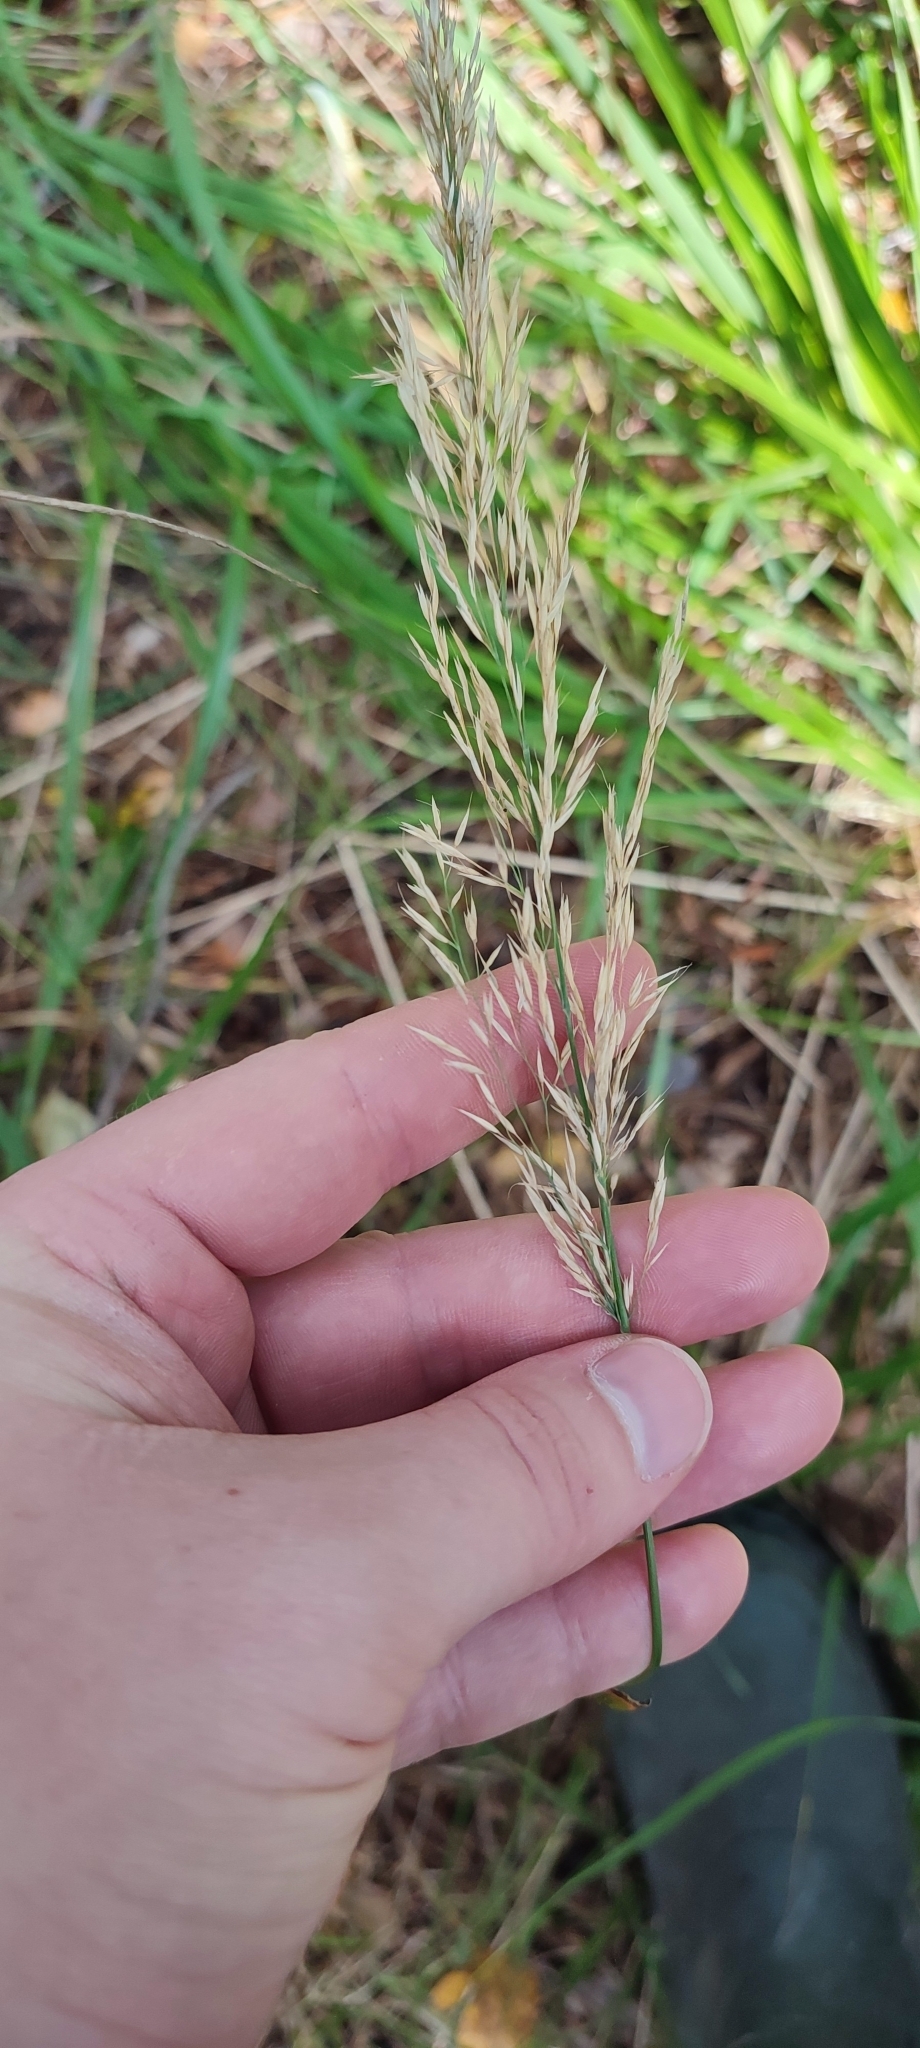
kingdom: Plantae
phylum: Tracheophyta
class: Liliopsida
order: Poales
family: Poaceae
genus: Calamagrostis
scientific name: Calamagrostis arundinacea
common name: Metskastik
